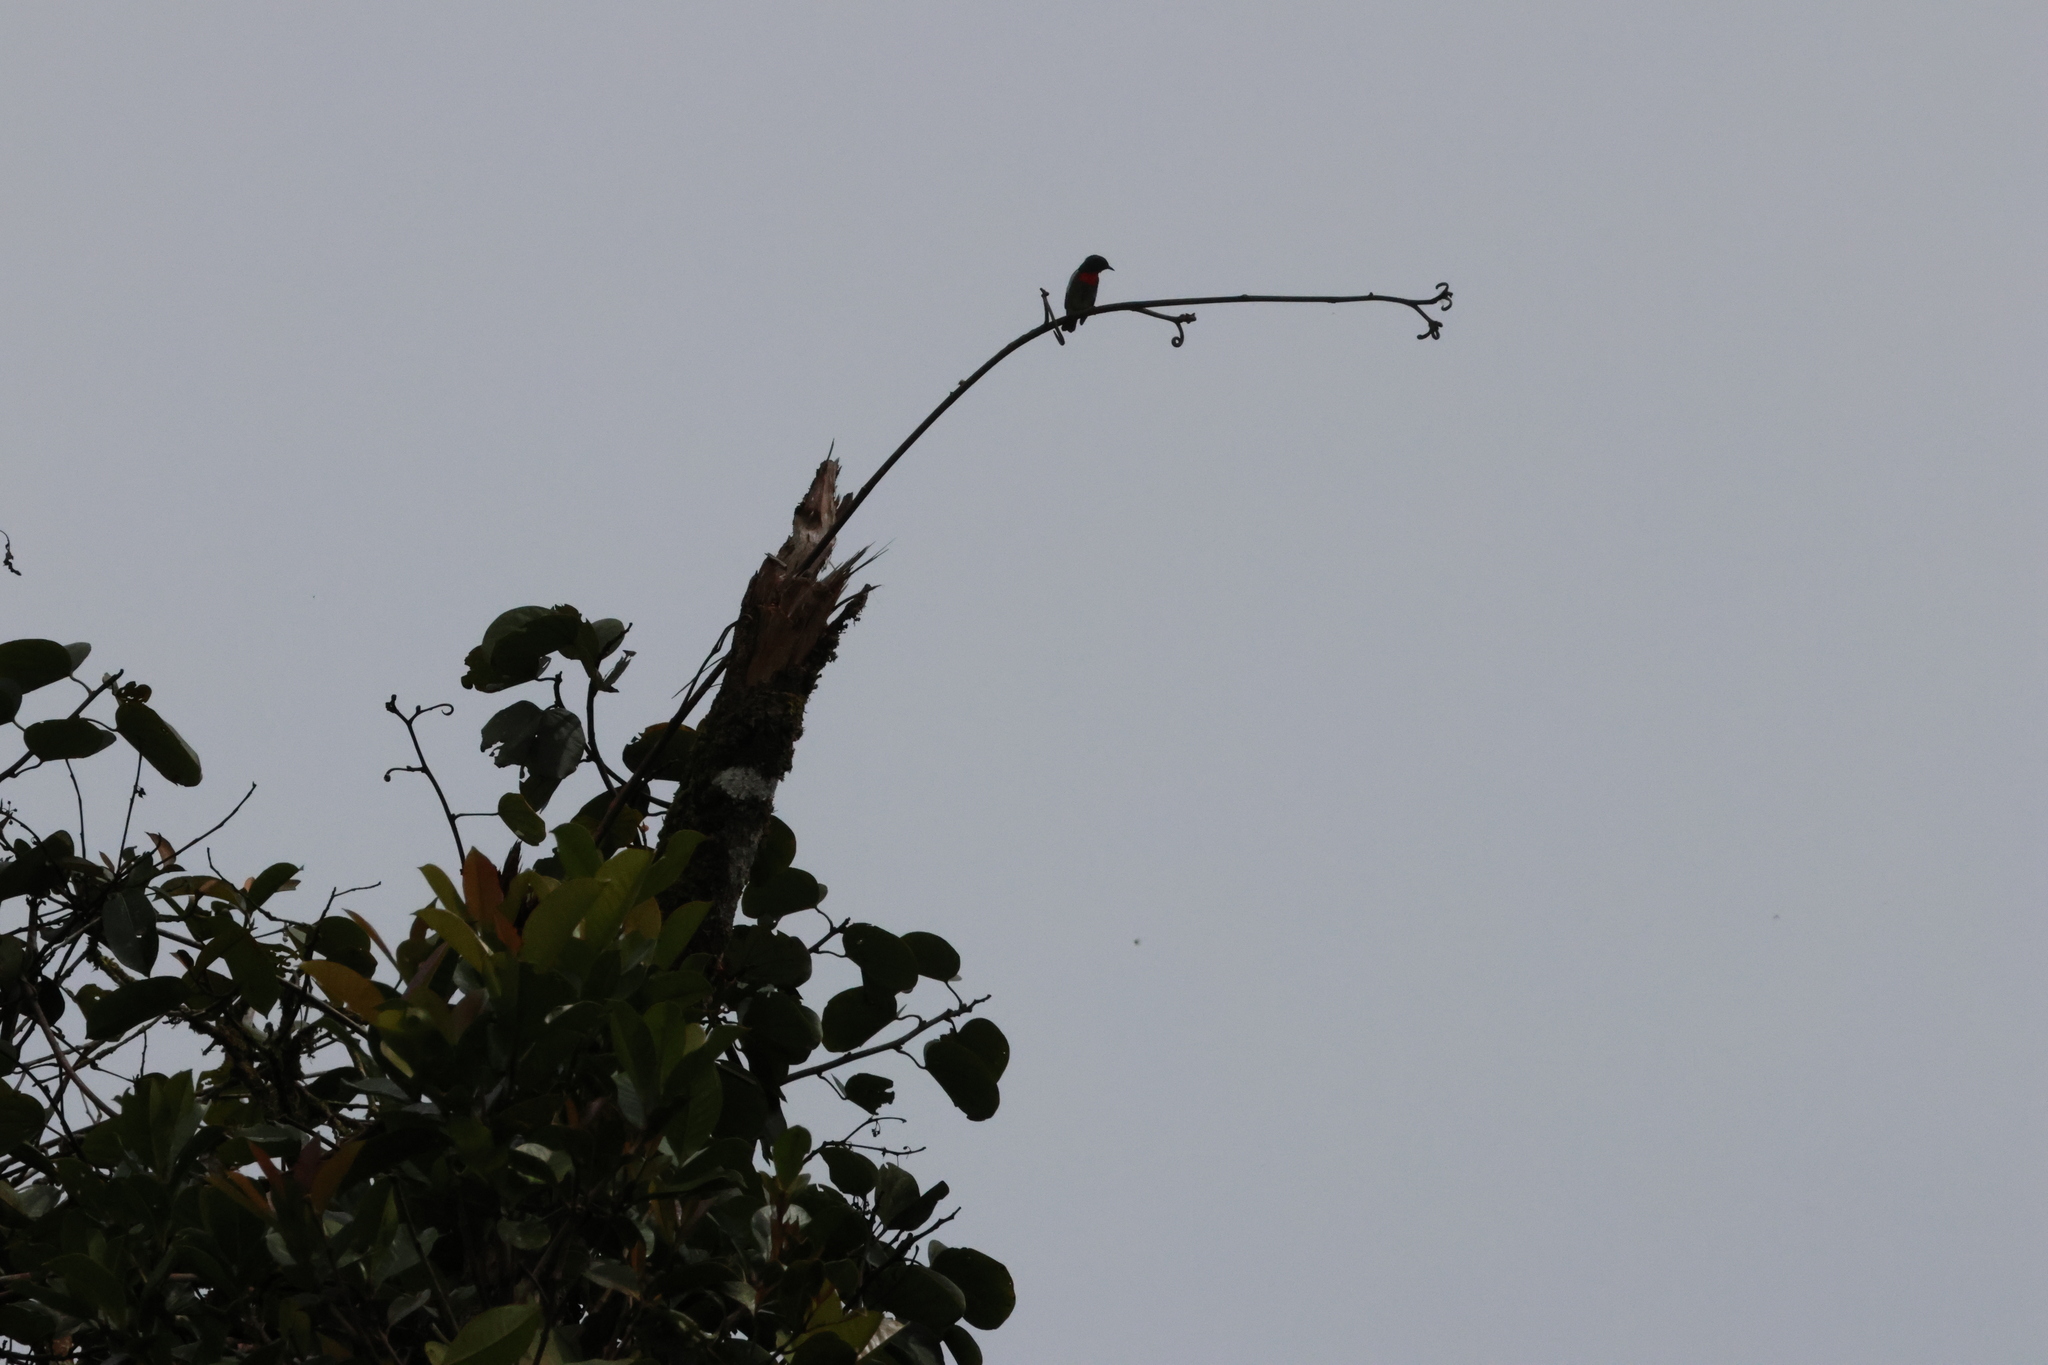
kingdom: Animalia
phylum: Chordata
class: Aves
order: Passeriformes
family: Dicaeidae
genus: Dicaeum
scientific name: Dicaeum monticolum
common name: Black-sided flowerpecker
